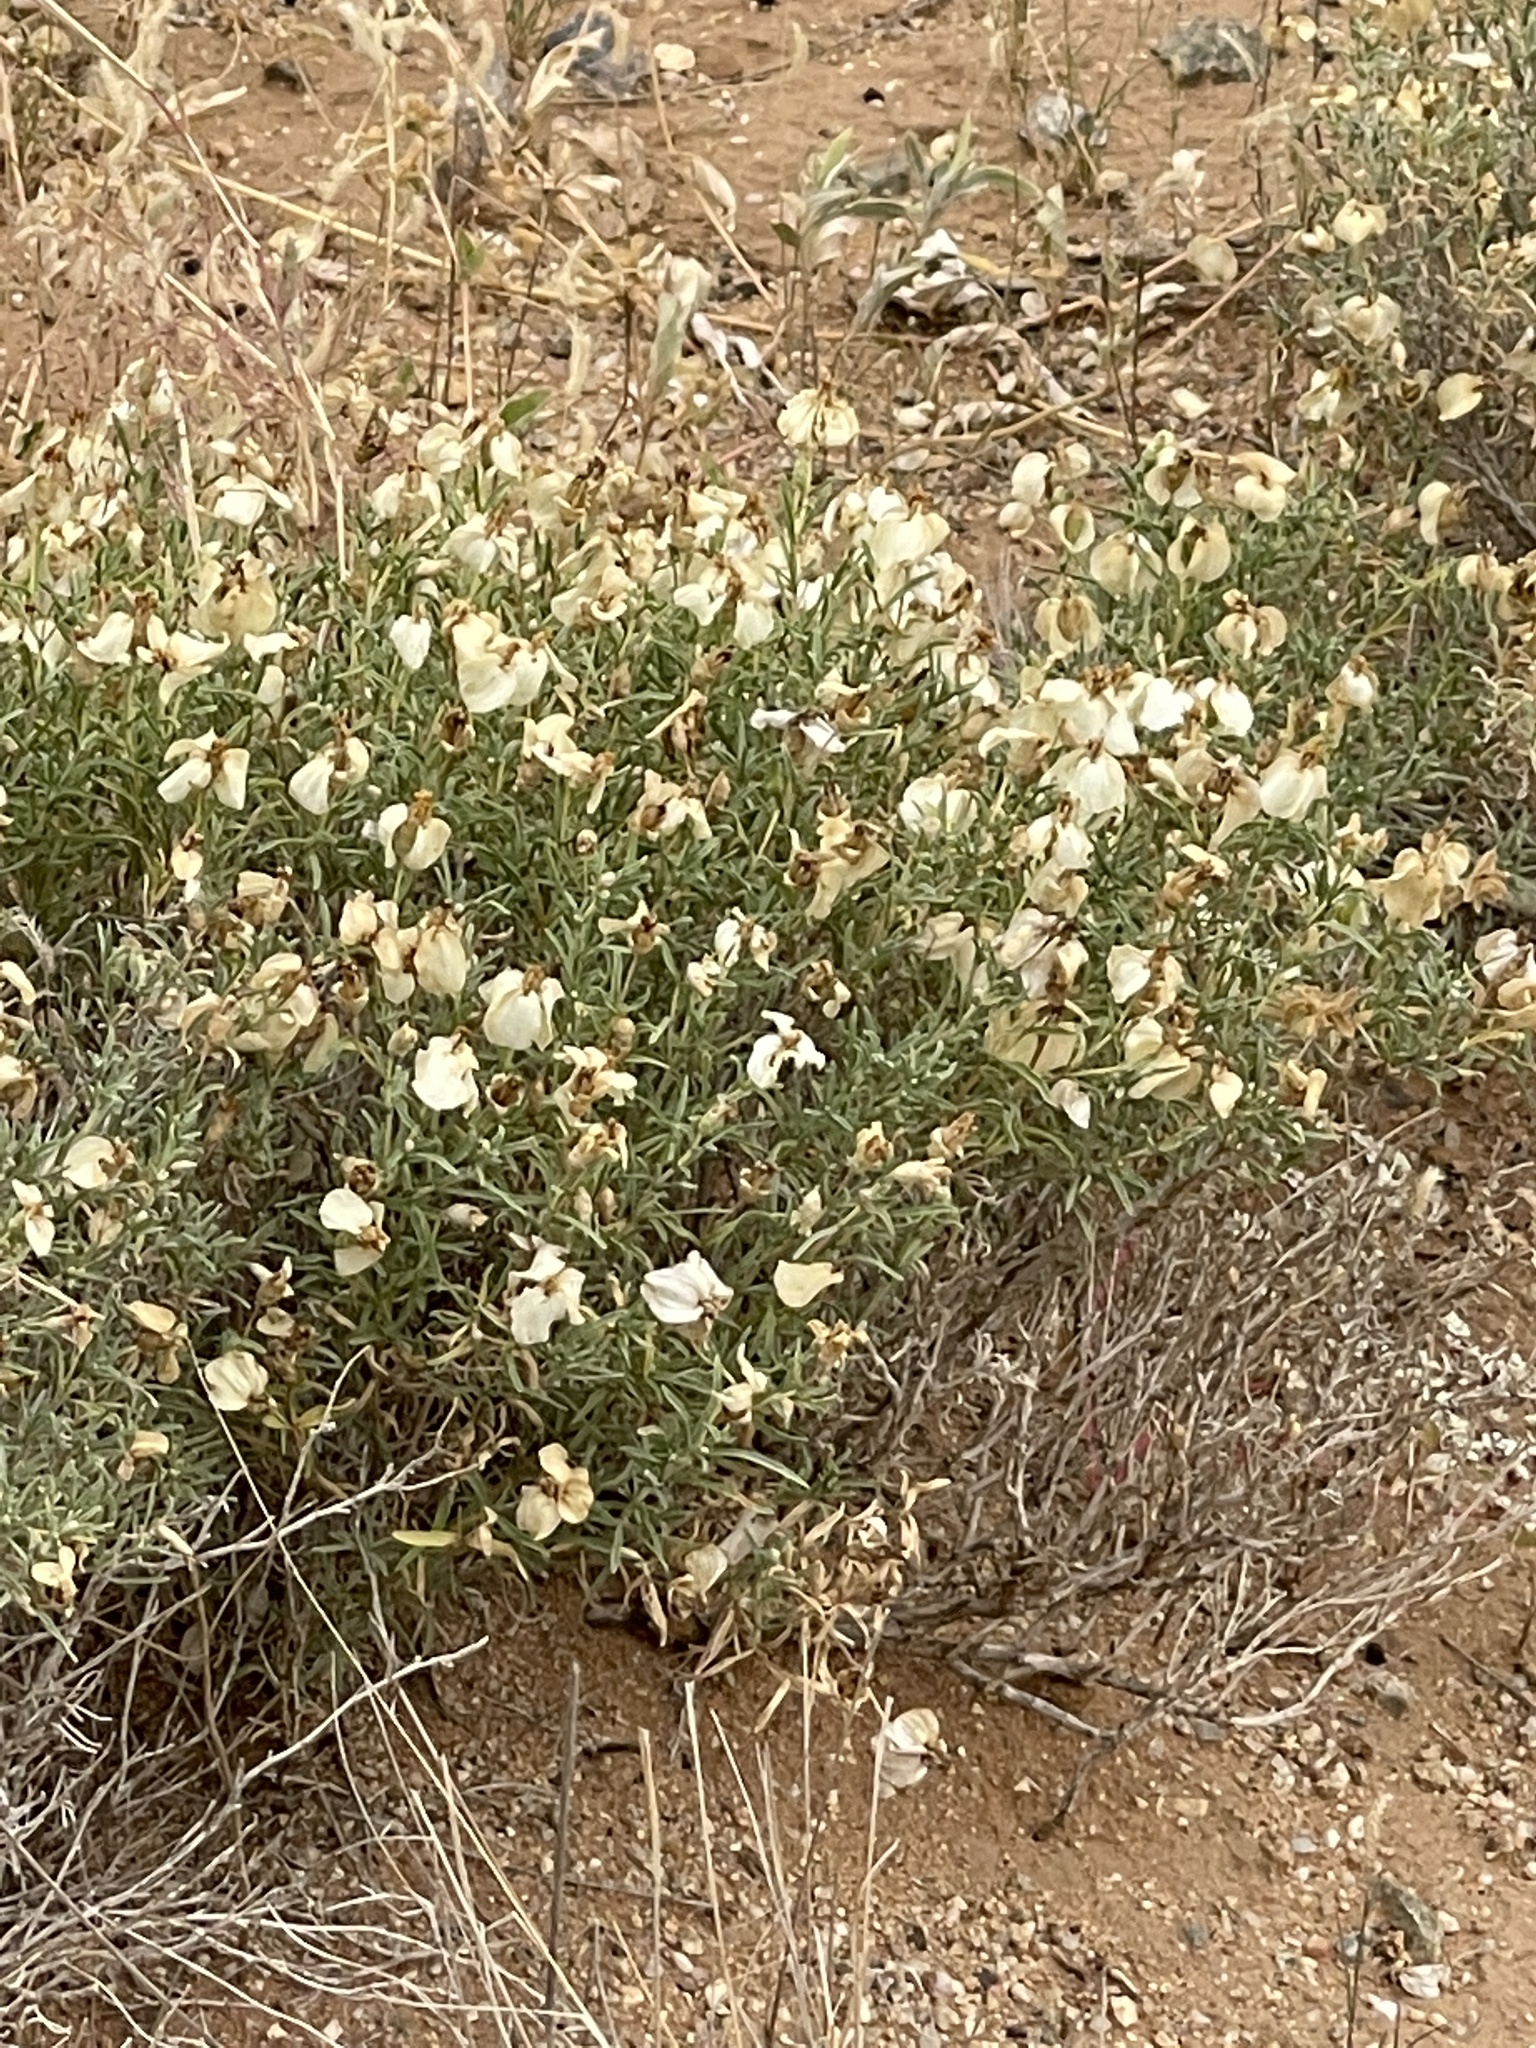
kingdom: Plantae
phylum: Tracheophyta
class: Magnoliopsida
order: Asterales
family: Asteraceae
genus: Zinnia
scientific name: Zinnia acerosa
